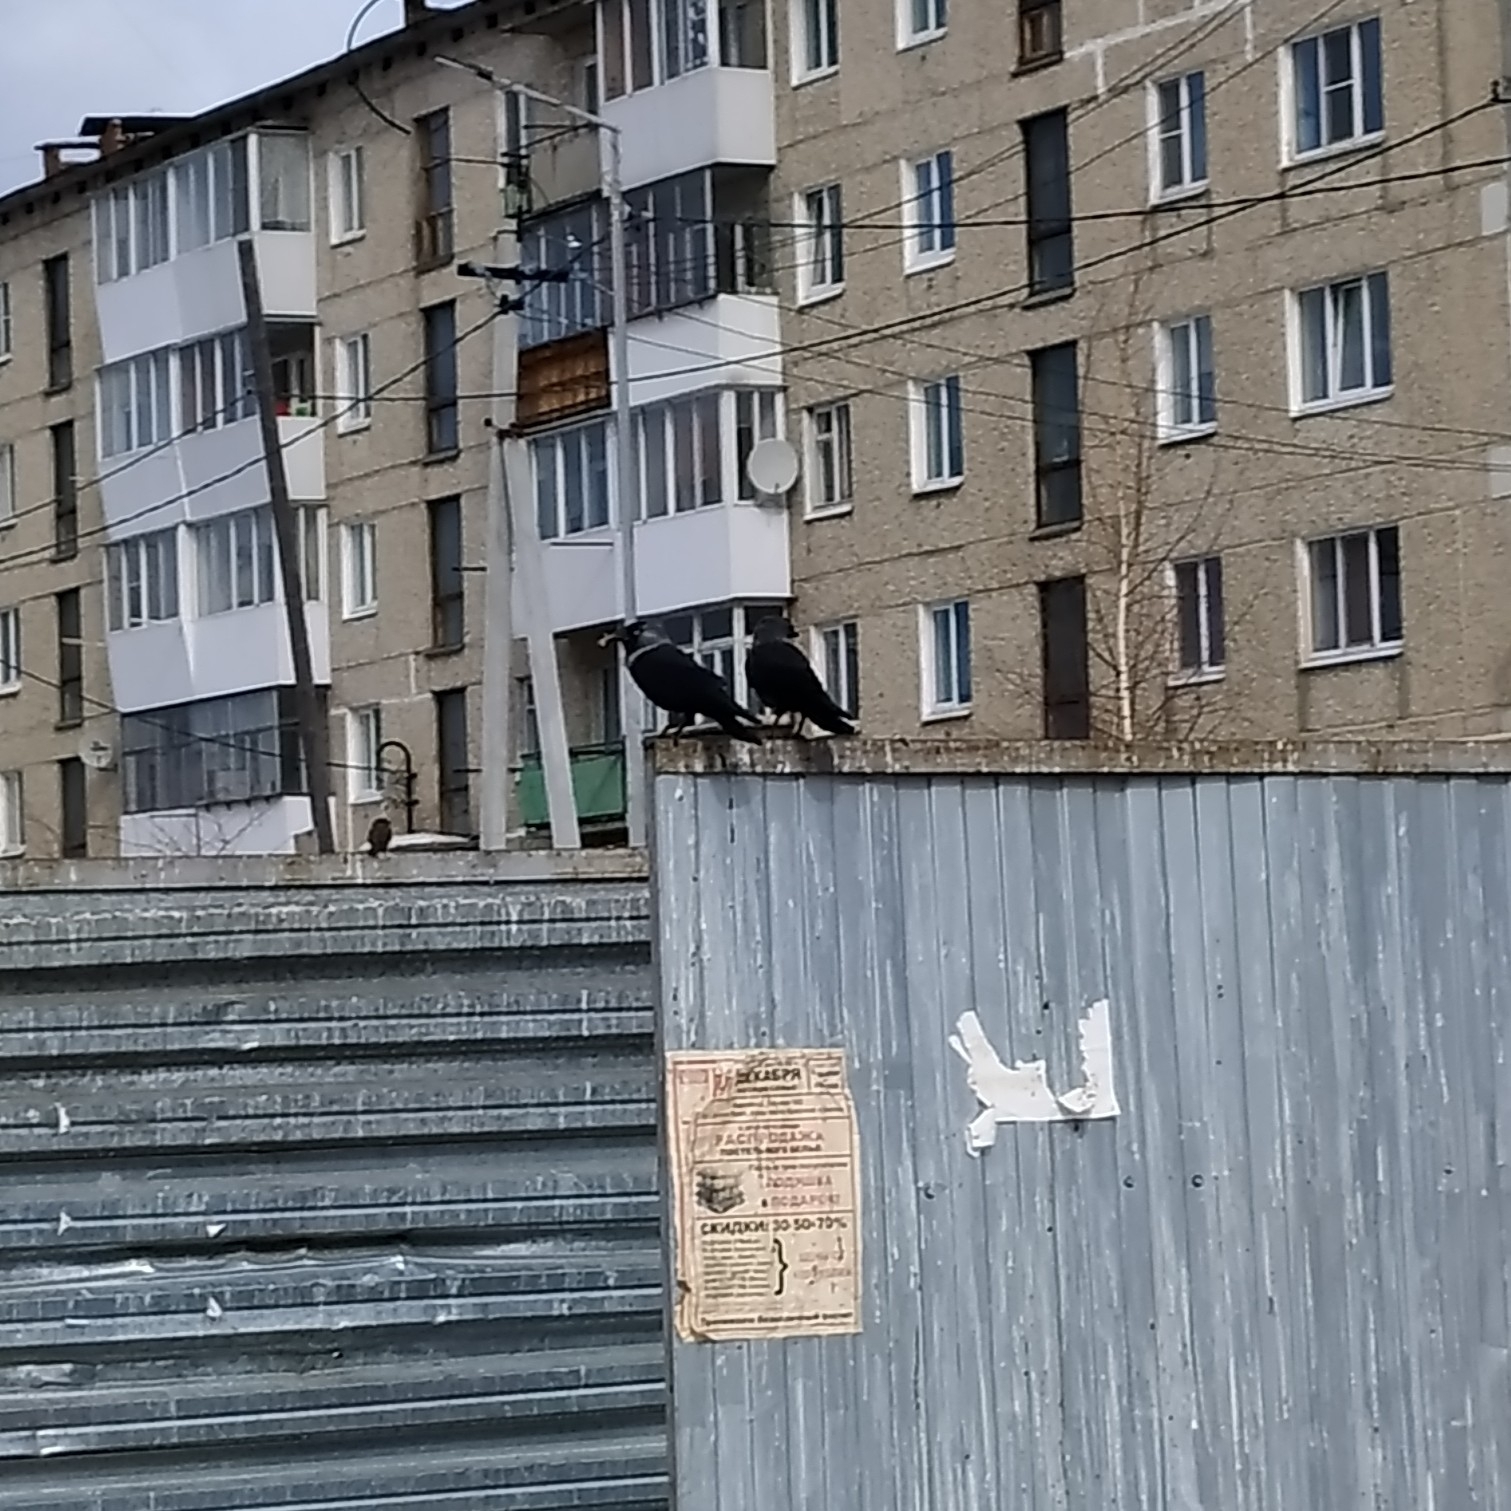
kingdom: Animalia
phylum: Chordata
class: Aves
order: Passeriformes
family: Corvidae
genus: Coloeus
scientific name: Coloeus monedula
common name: Western jackdaw
